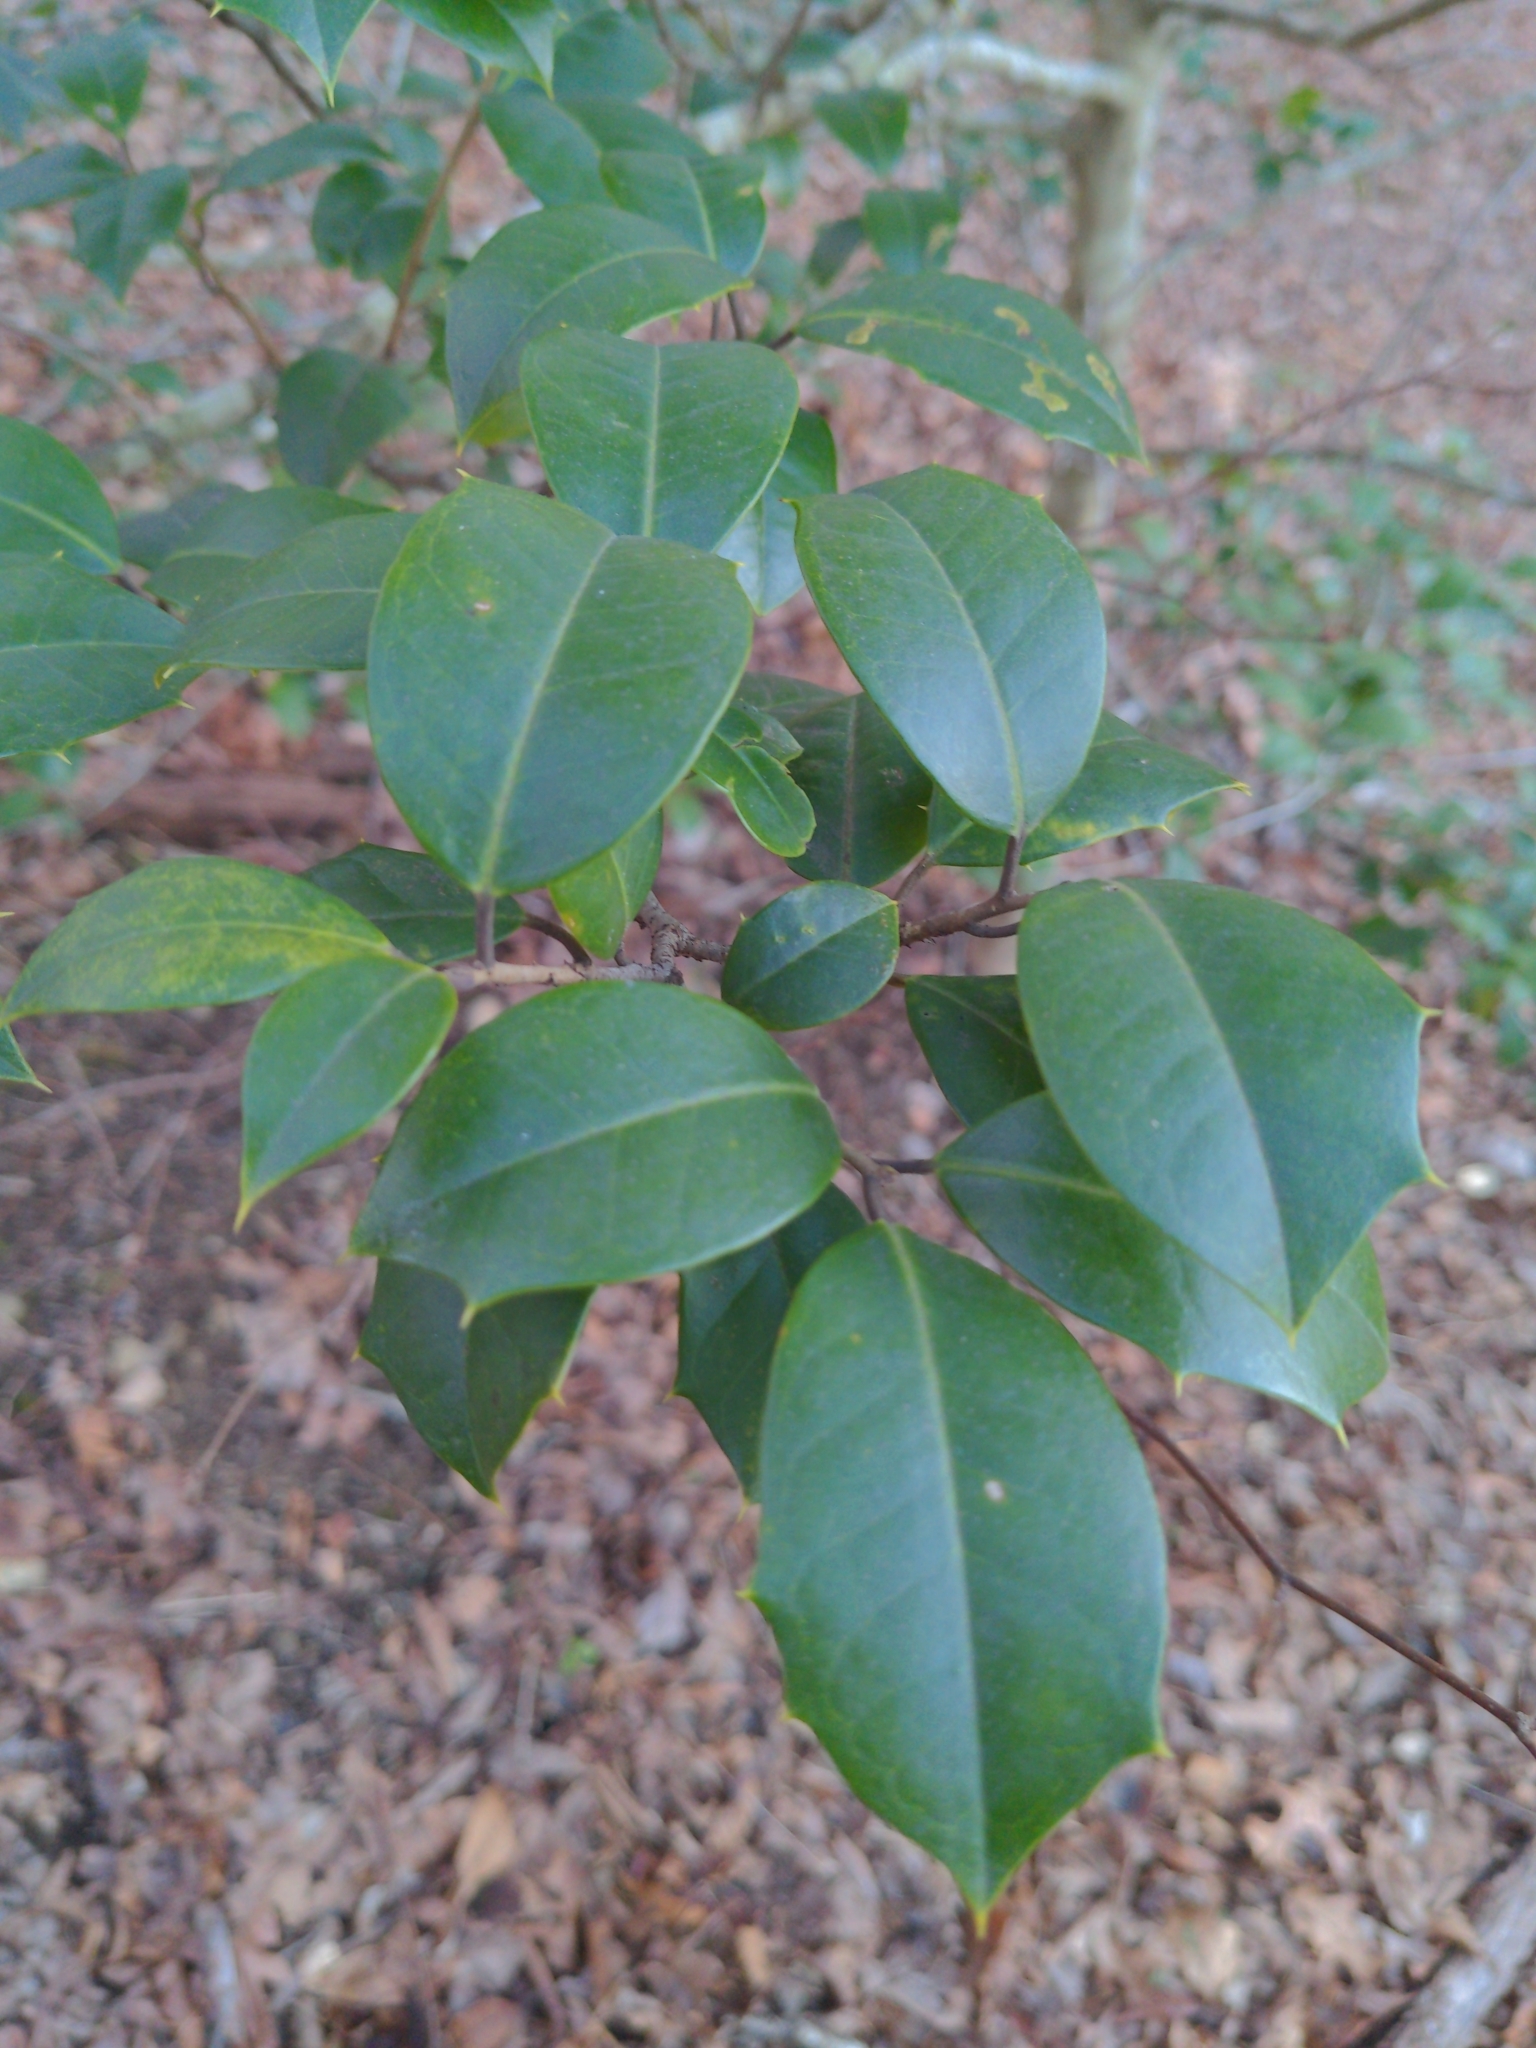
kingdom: Plantae
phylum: Tracheophyta
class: Magnoliopsida
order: Aquifoliales
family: Aquifoliaceae
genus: Ilex
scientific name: Ilex opaca
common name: American holly
